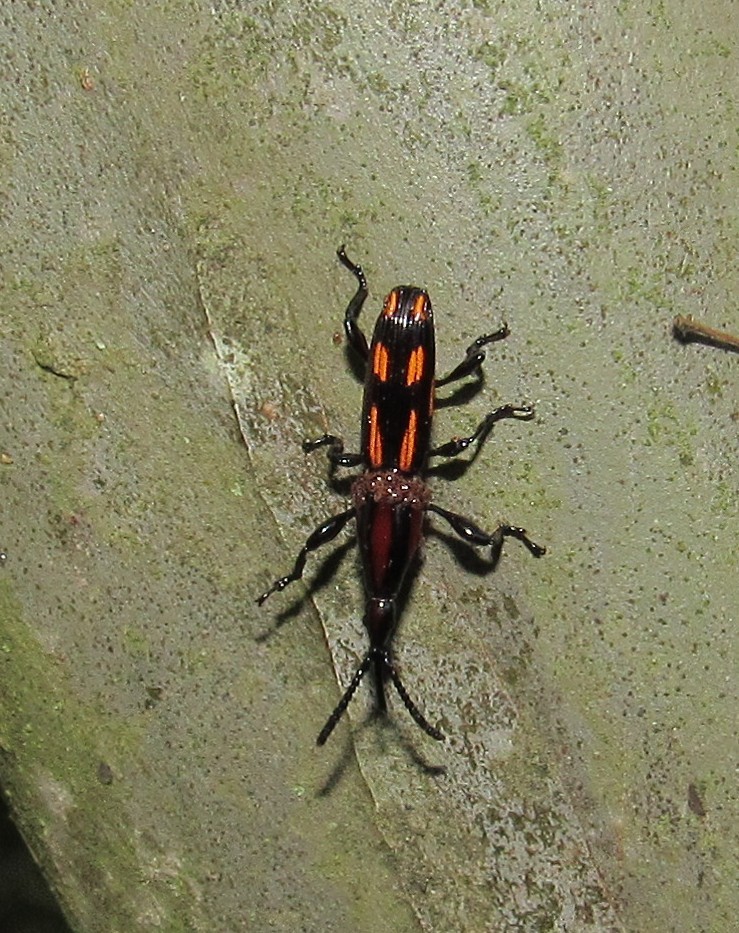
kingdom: Animalia
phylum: Arthropoda
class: Insecta
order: Coleoptera
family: Brentidae
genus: Brentus
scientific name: Brentus lineicollis
